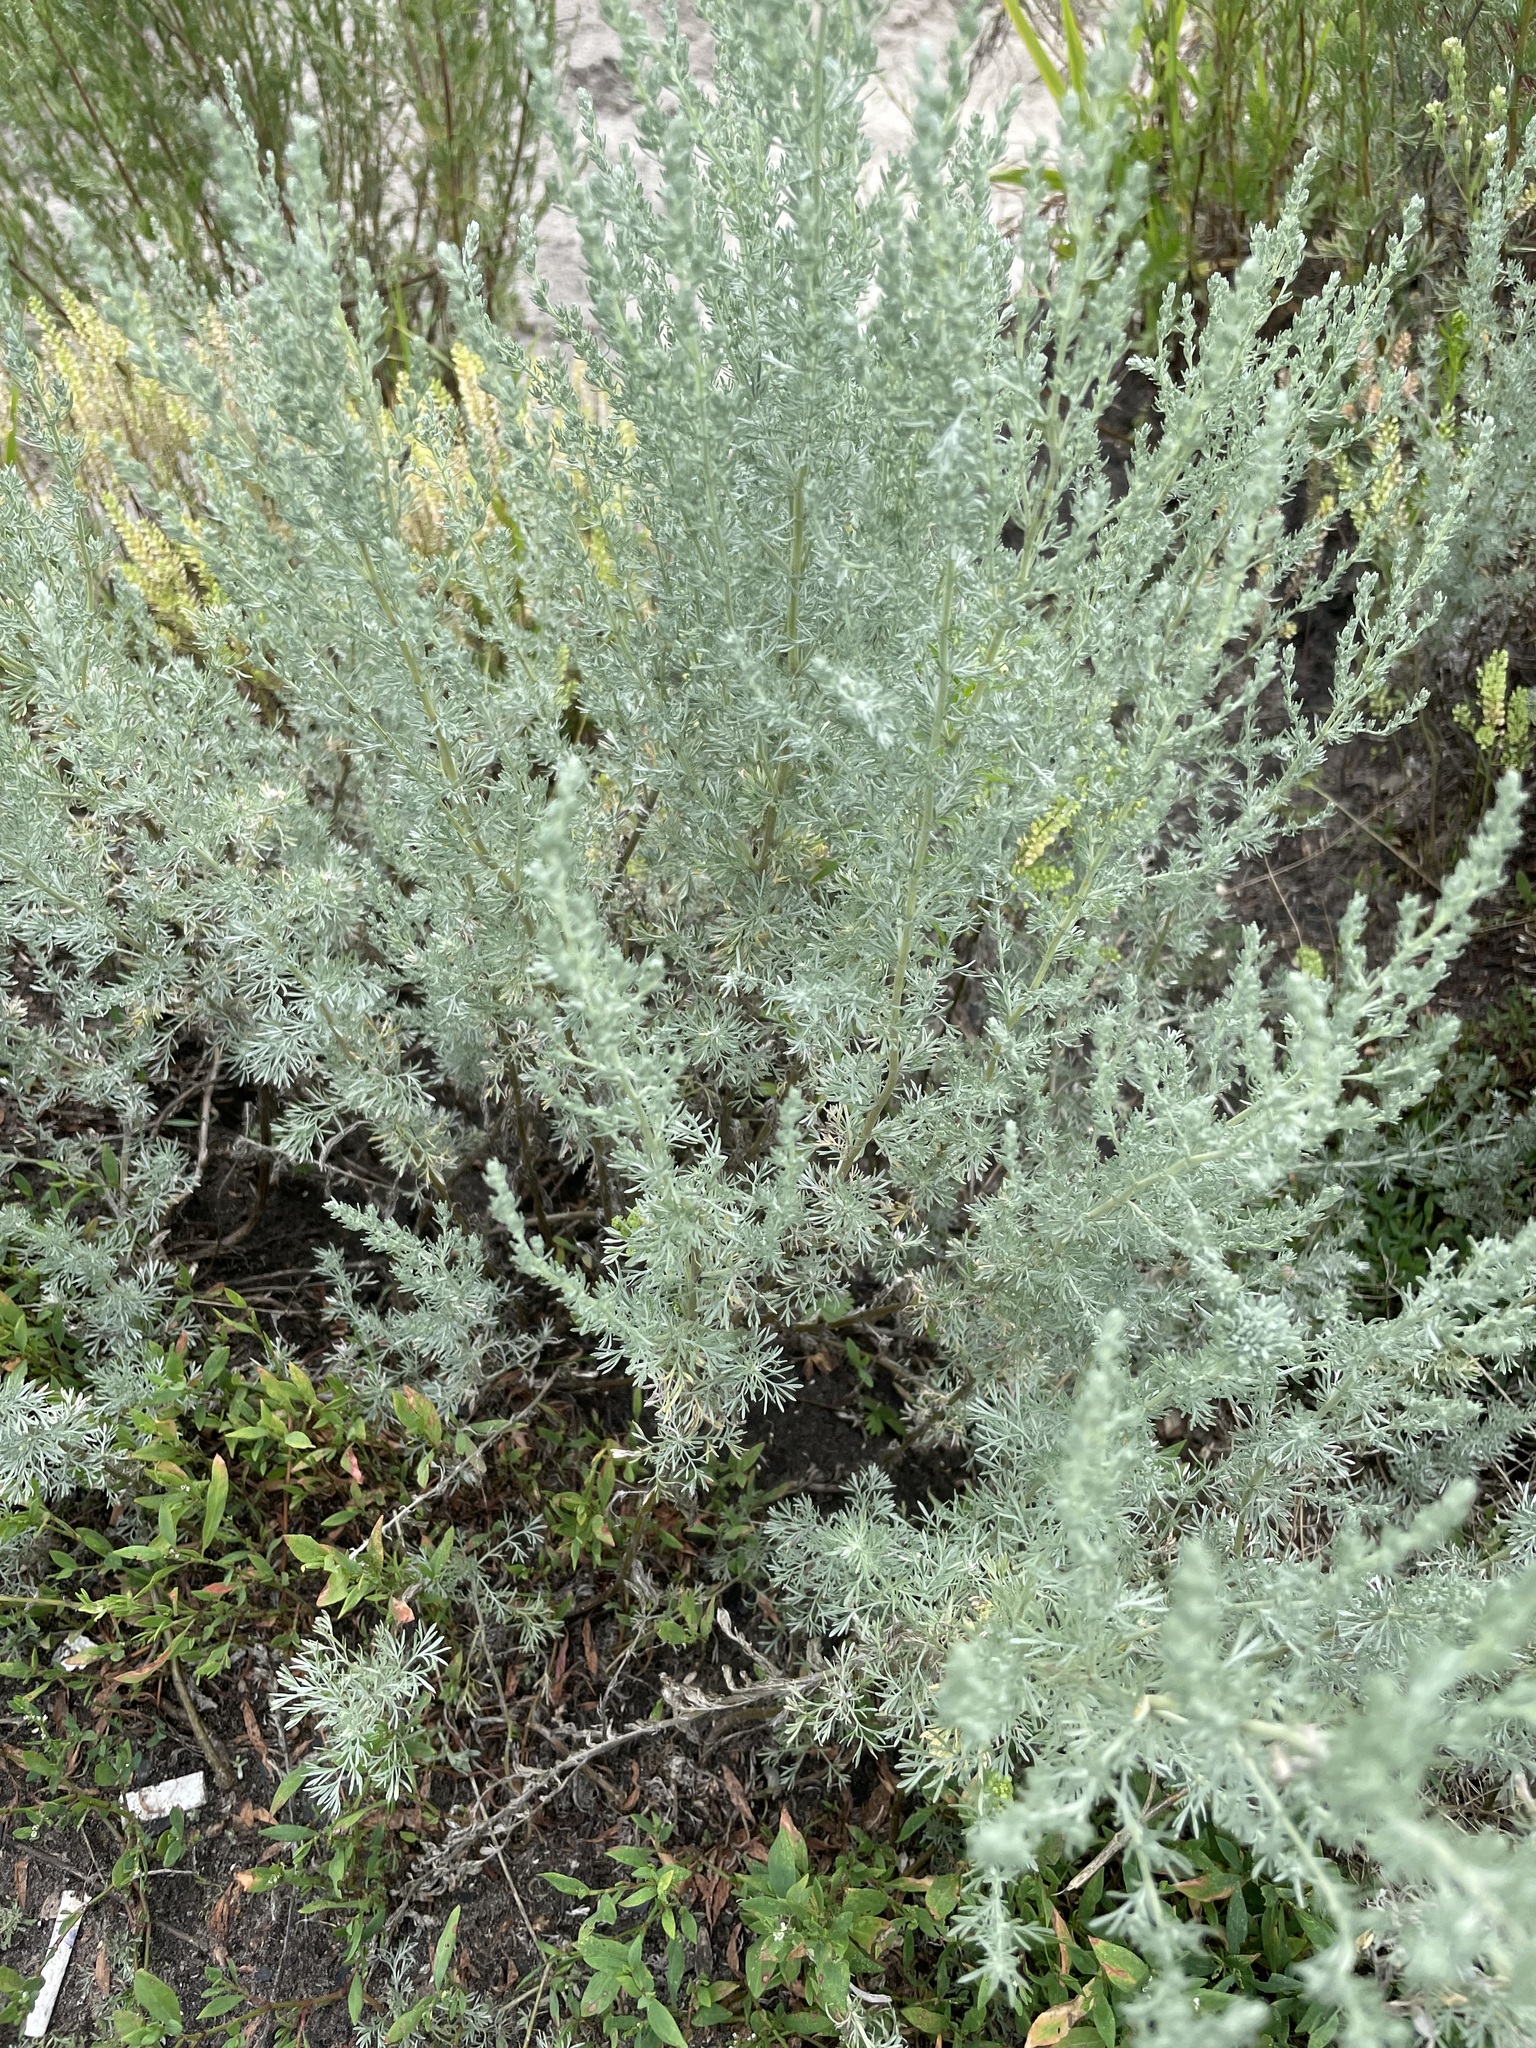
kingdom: Plantae
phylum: Tracheophyta
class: Magnoliopsida
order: Asterales
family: Asteraceae
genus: Artemisia
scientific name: Artemisia austriaca
